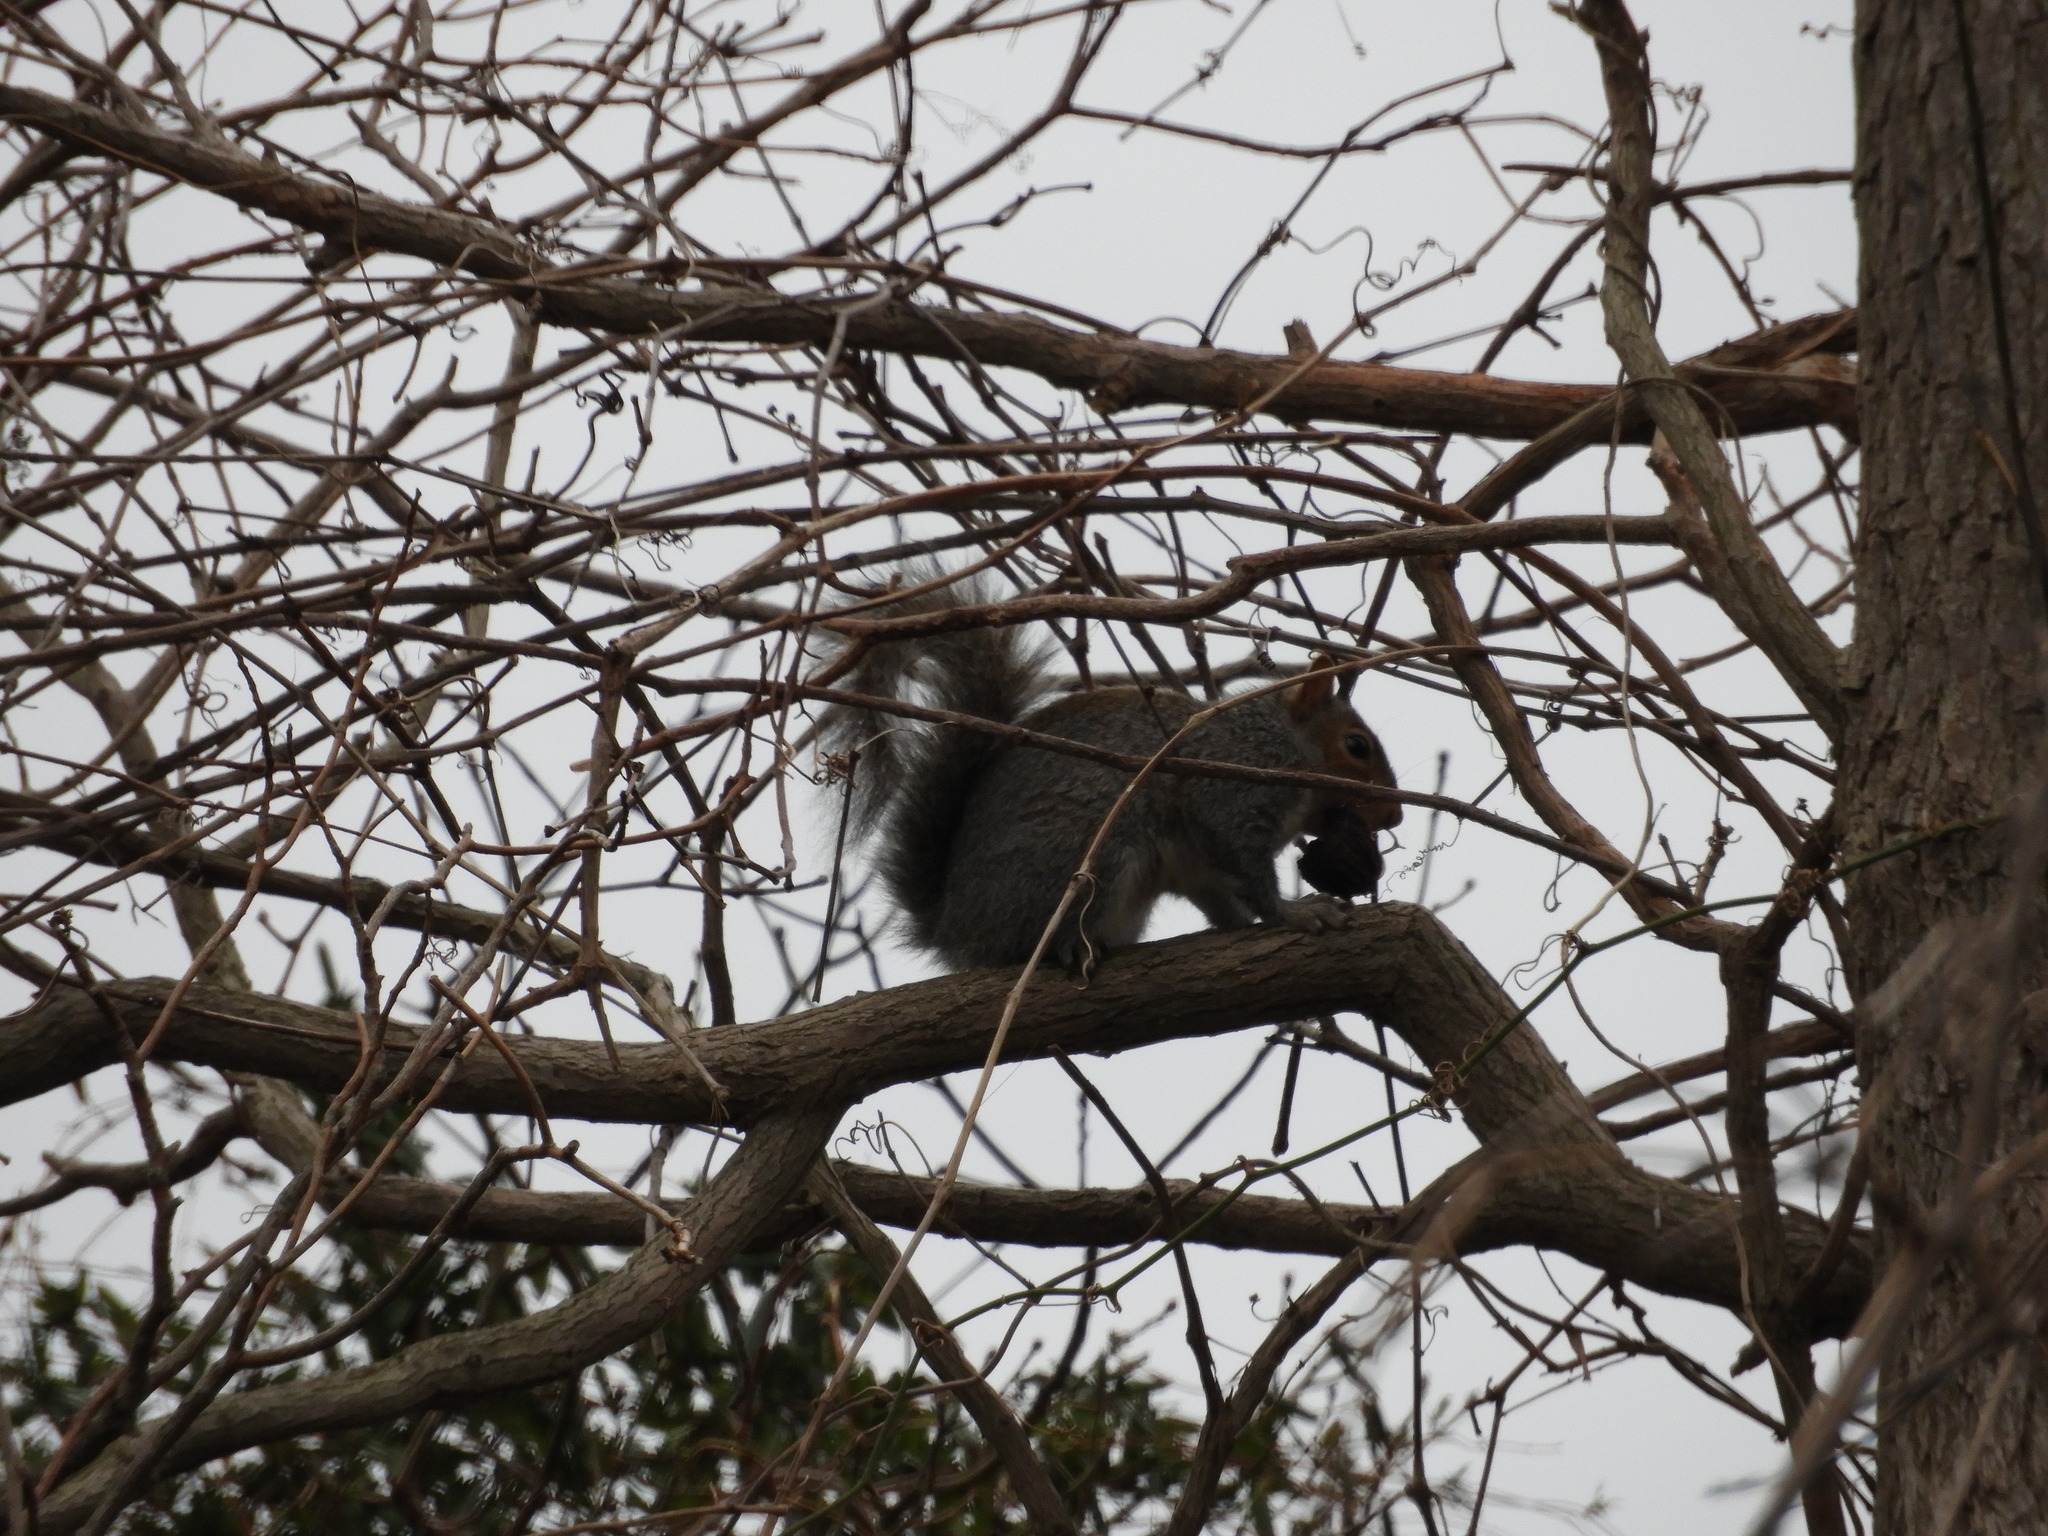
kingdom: Animalia
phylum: Chordata
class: Mammalia
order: Rodentia
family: Sciuridae
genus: Sciurus
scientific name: Sciurus carolinensis
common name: Eastern gray squirrel
